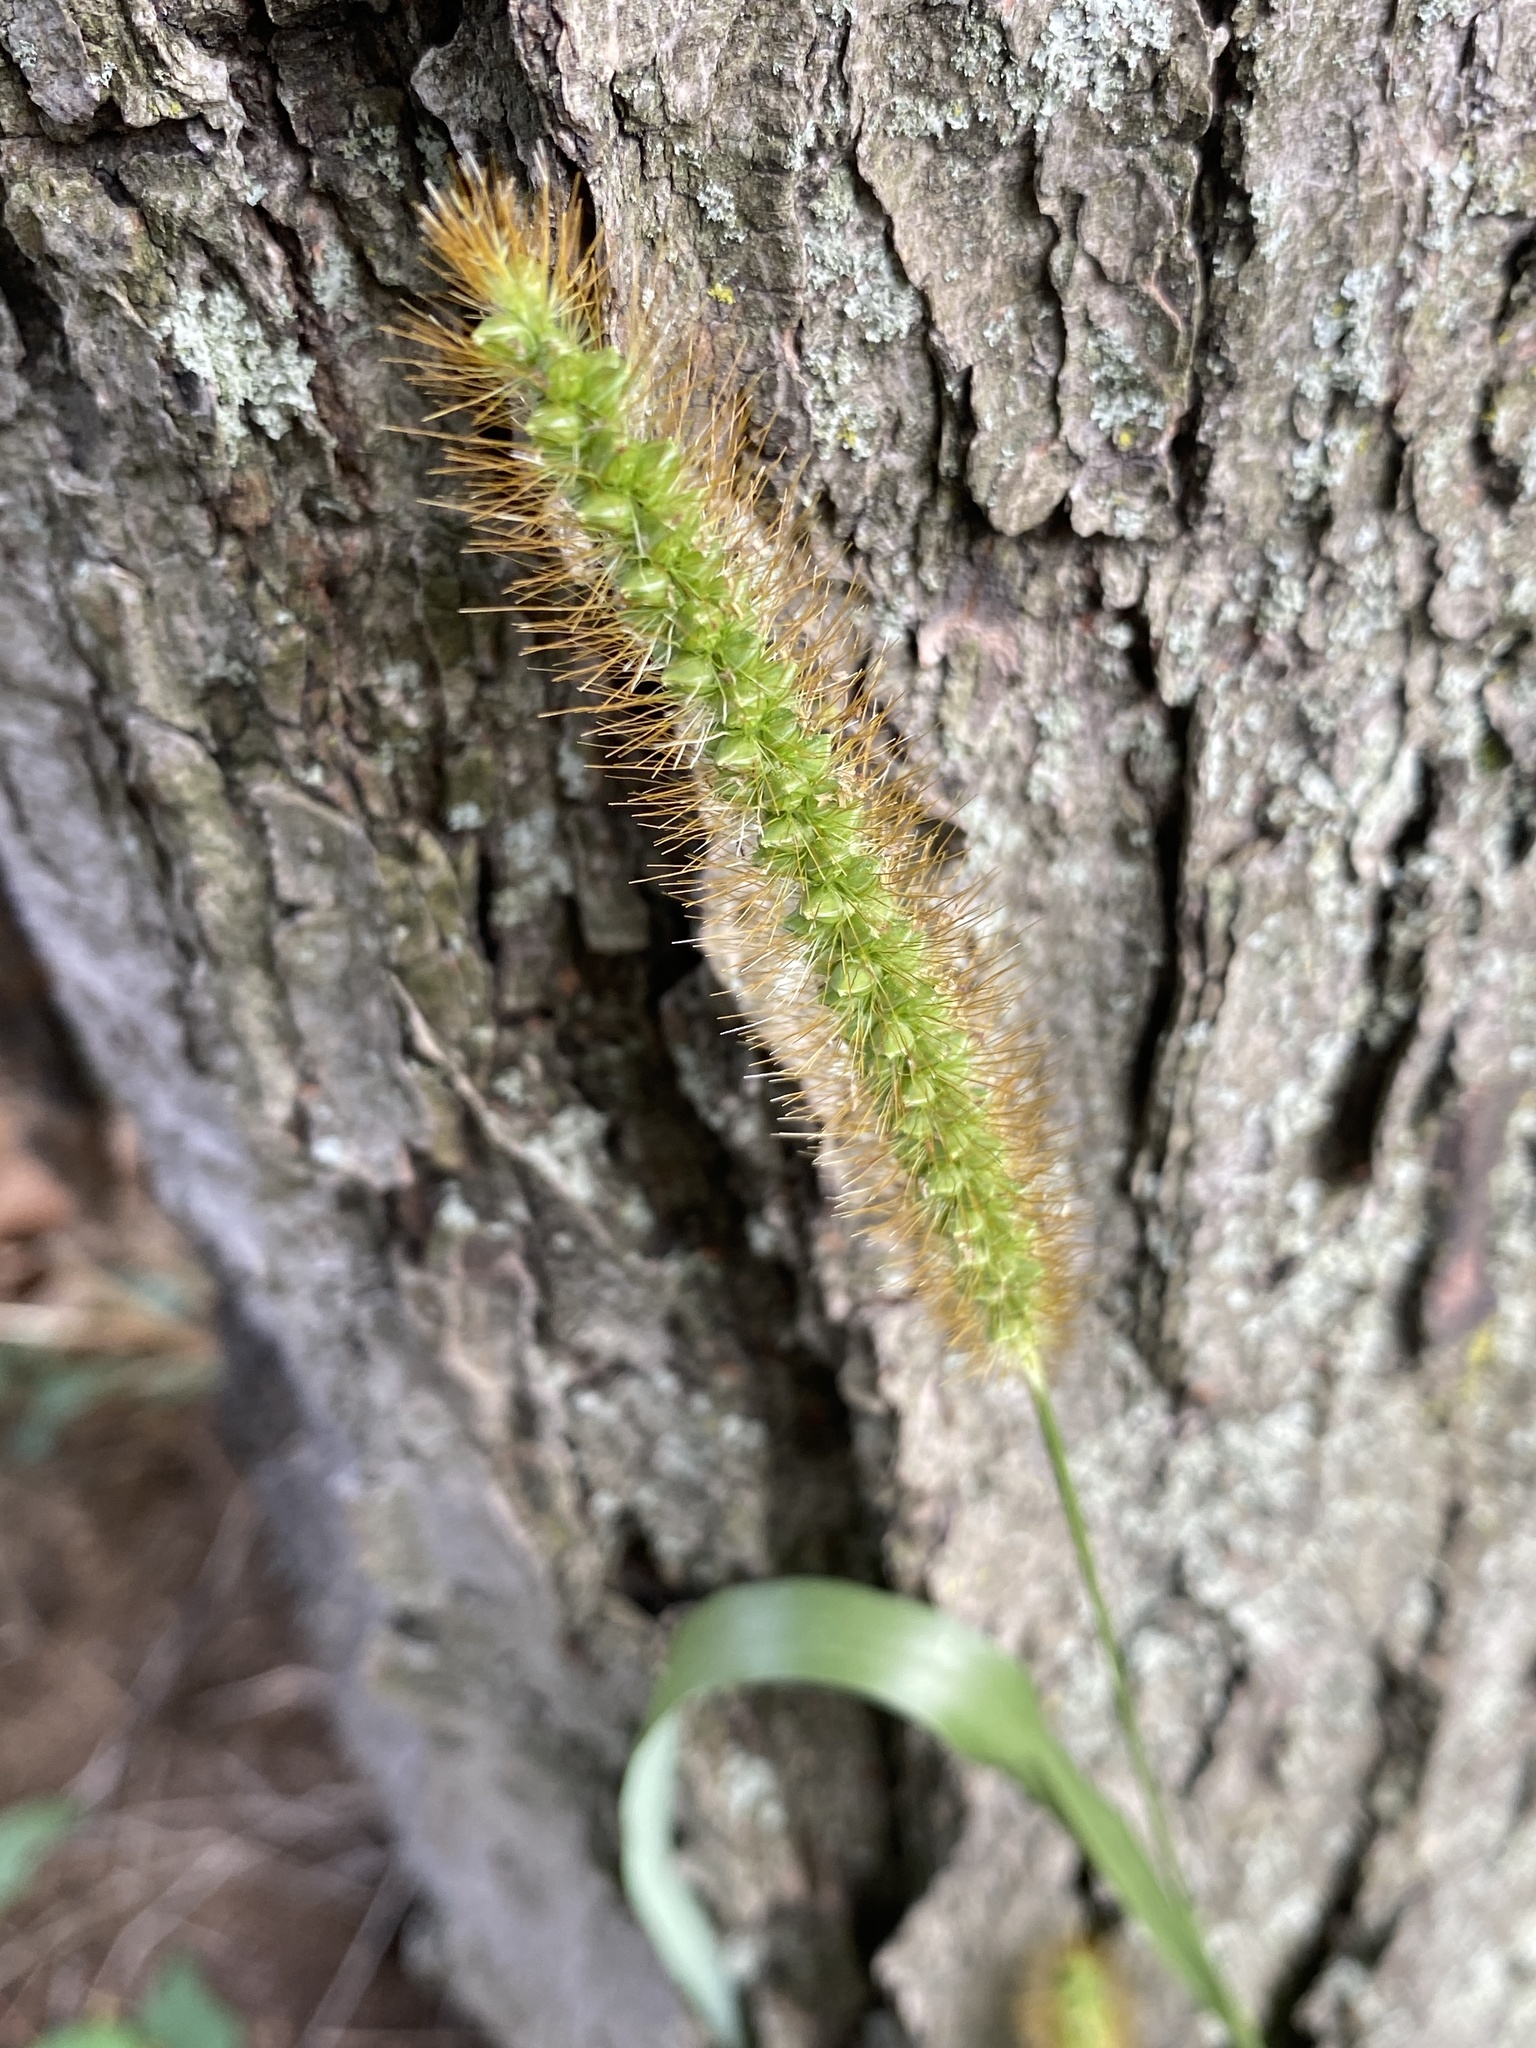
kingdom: Plantae
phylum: Tracheophyta
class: Liliopsida
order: Poales
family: Poaceae
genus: Setaria
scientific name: Setaria pumila
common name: Yellow bristle-grass
